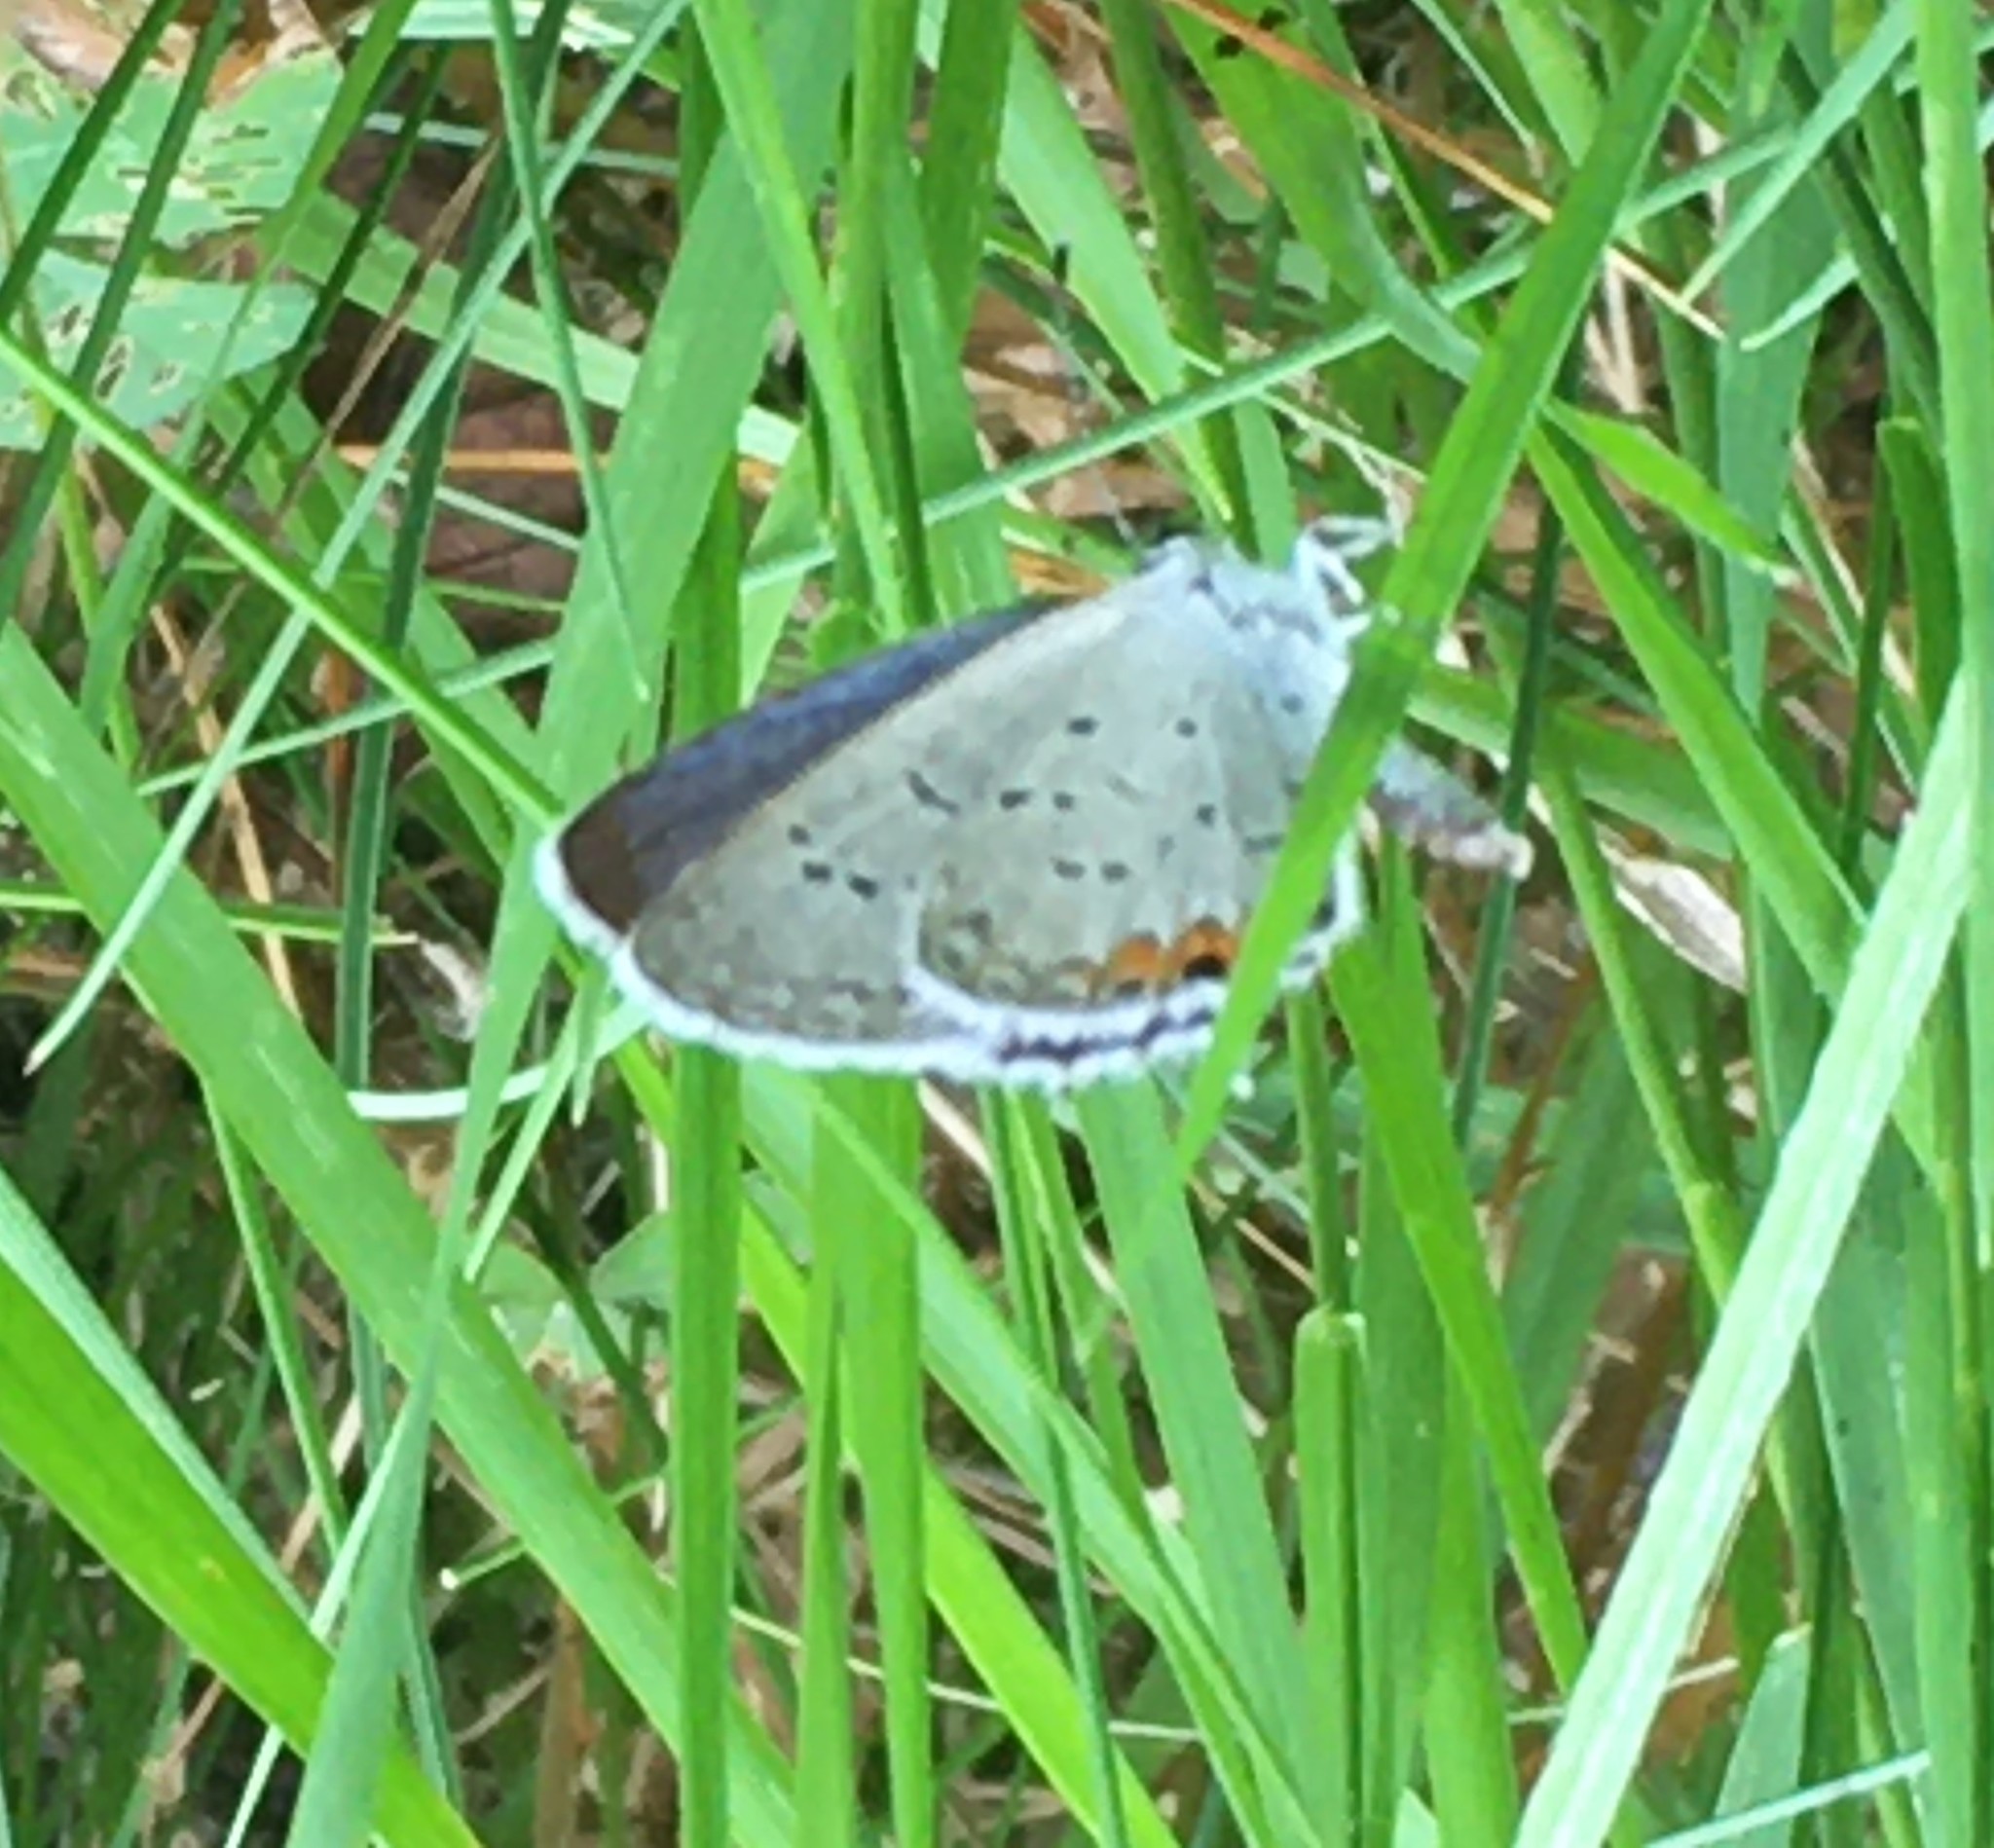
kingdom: Animalia
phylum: Arthropoda
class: Insecta
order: Lepidoptera
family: Lycaenidae
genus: Elkalyce
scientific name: Elkalyce comyntas
